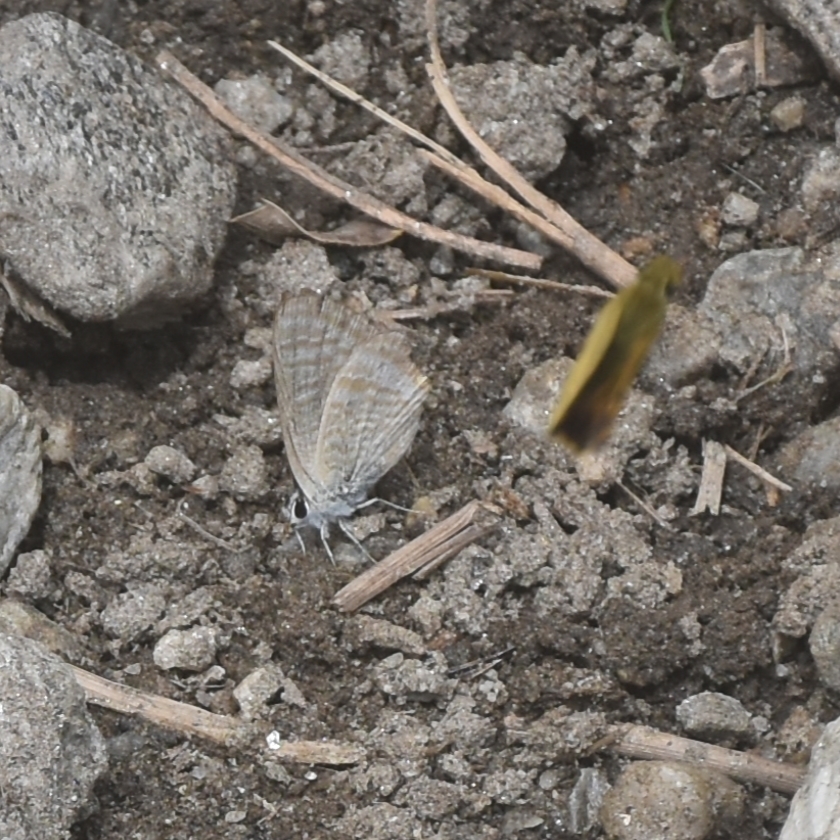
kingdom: Animalia
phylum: Arthropoda
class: Insecta
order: Lepidoptera
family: Lycaenidae
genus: Lampides
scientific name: Lampides boeticus
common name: Long-tailed blue
